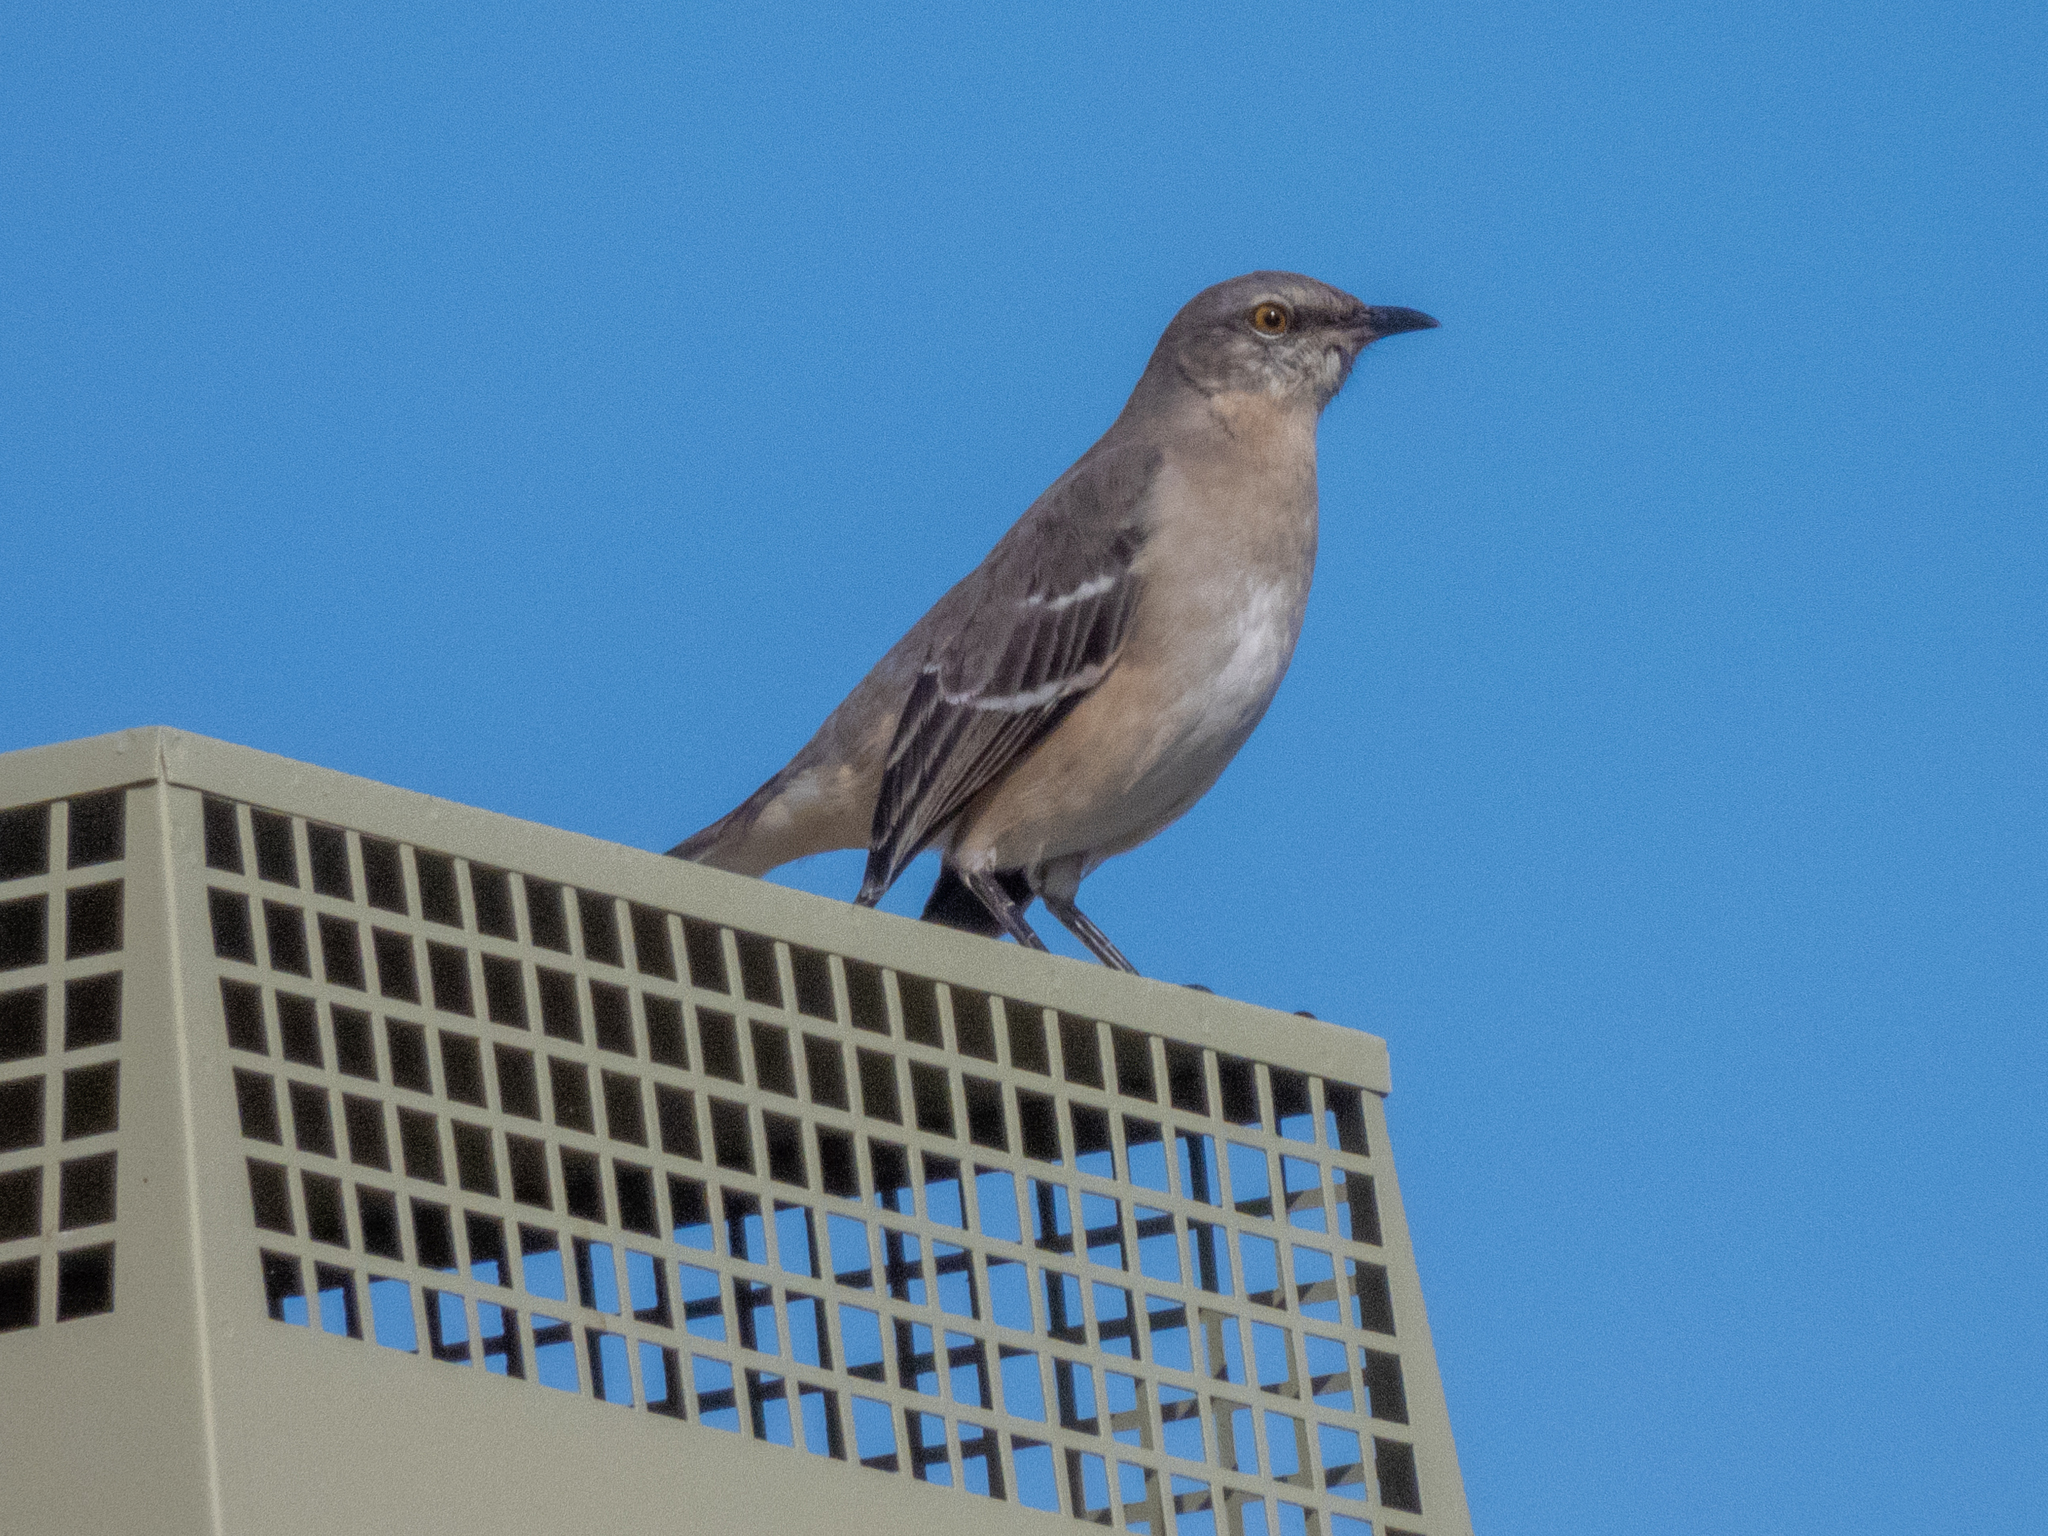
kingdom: Animalia
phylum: Chordata
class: Aves
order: Passeriformes
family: Mimidae
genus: Mimus
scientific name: Mimus polyglottos
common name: Northern mockingbird
